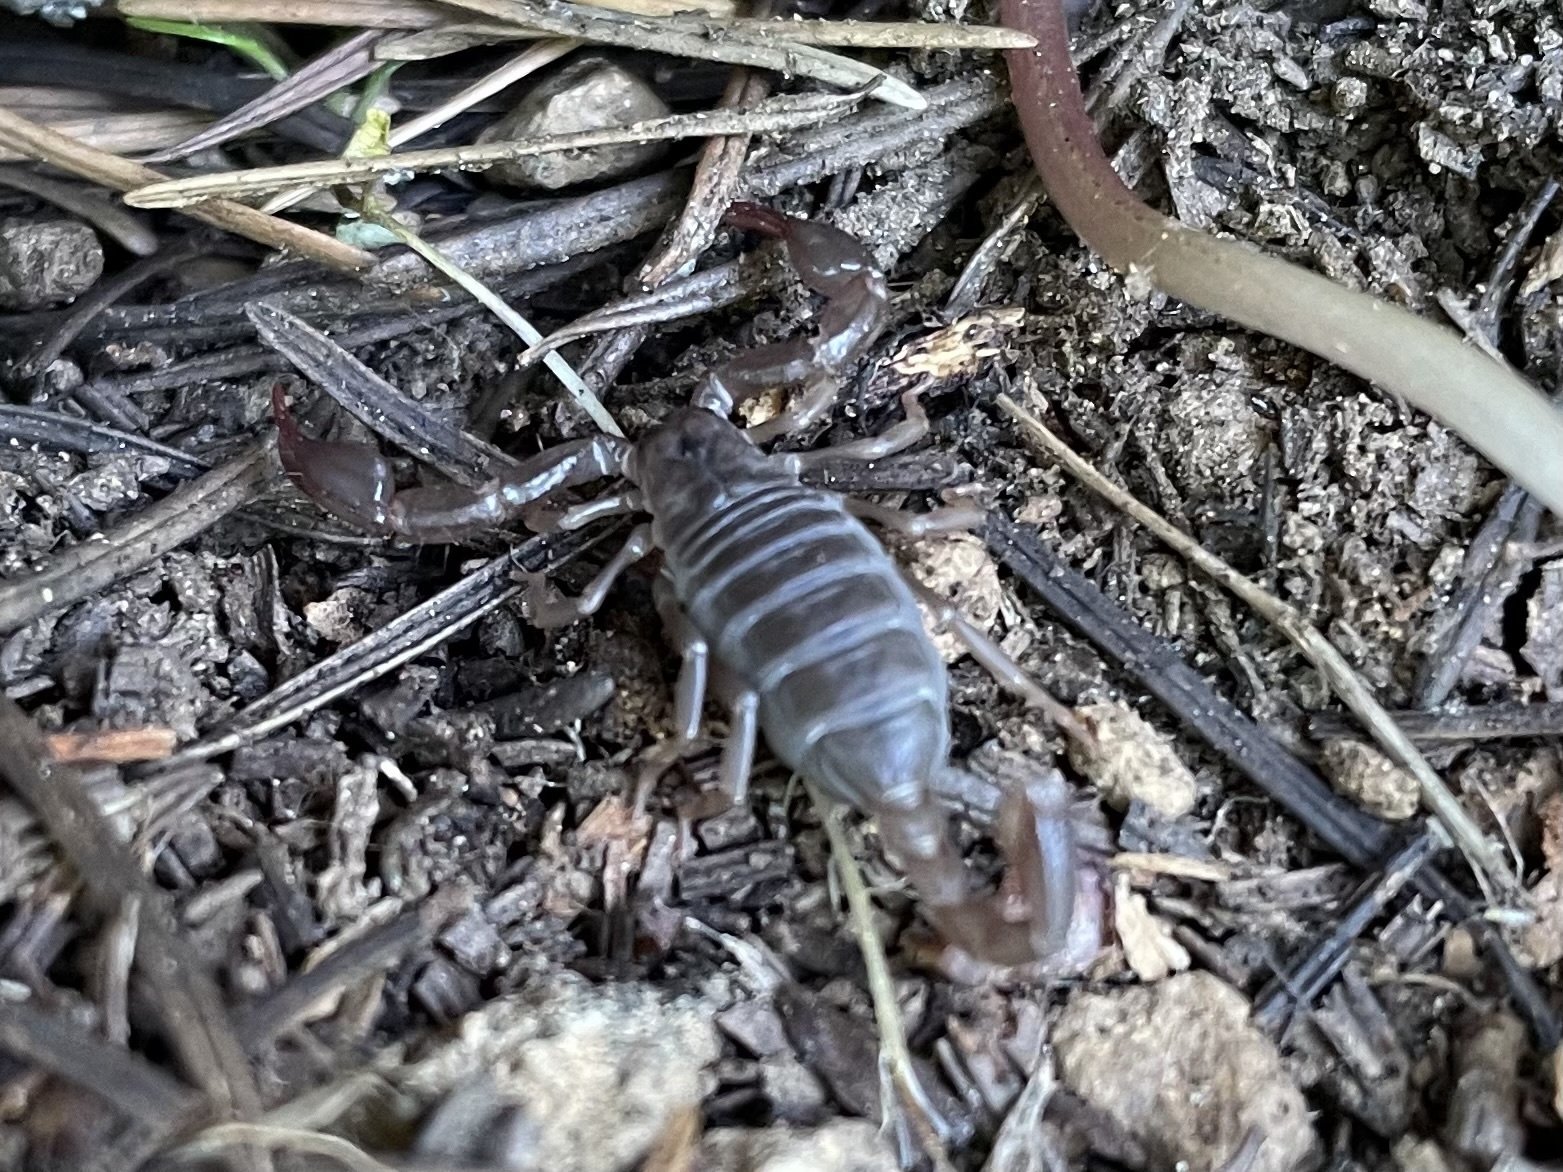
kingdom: Animalia
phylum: Arthropoda
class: Arachnida
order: Scorpiones
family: Chactidae
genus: Uroctonus
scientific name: Uroctonus mordax
